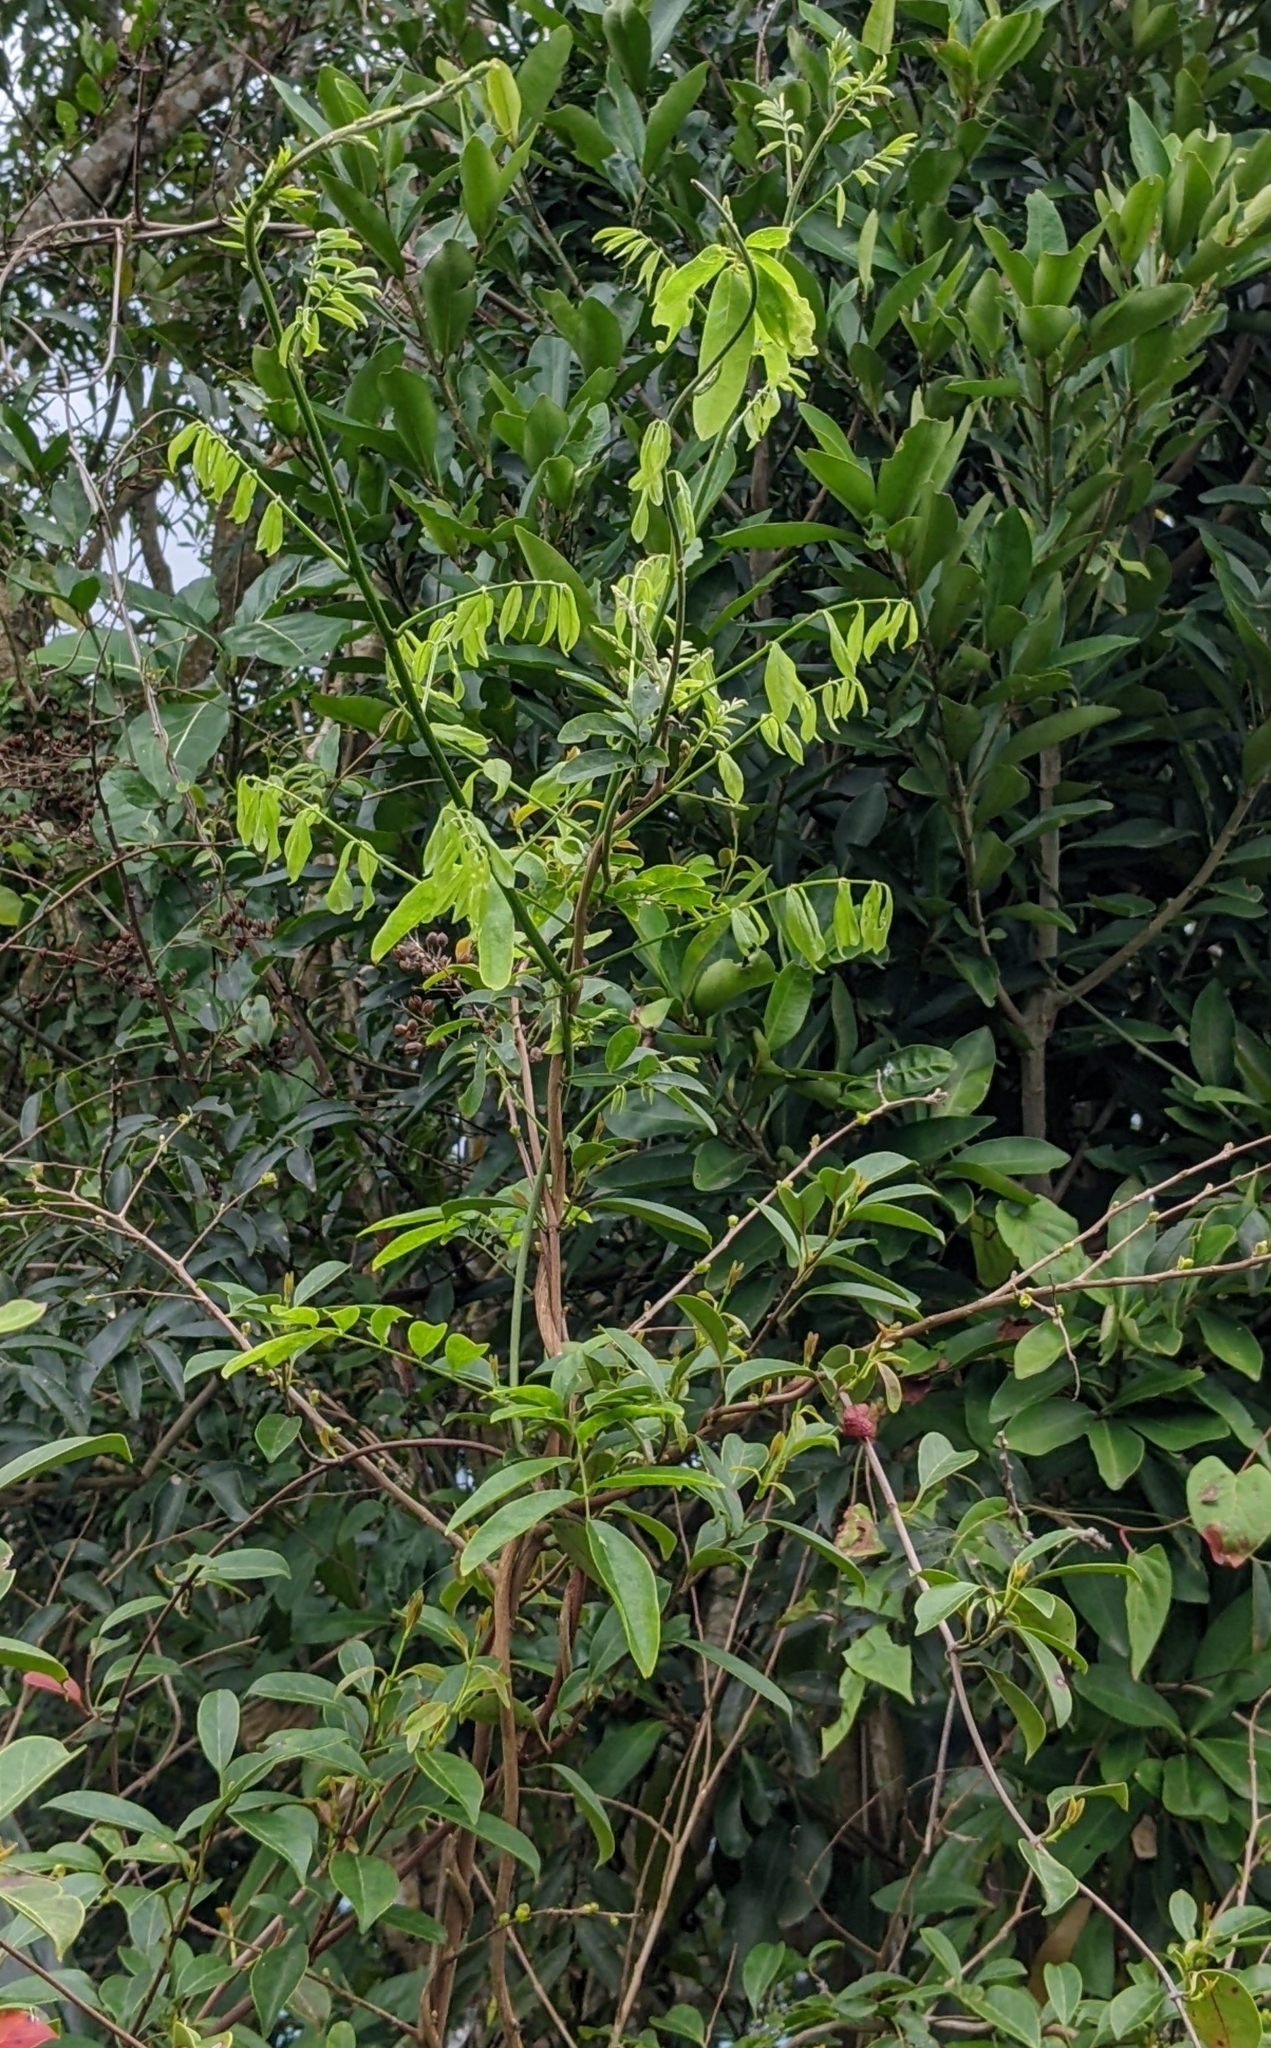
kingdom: Plantae
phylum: Tracheophyta
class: Magnoliopsida
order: Fabales
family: Fabaceae
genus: Wisteriopsis
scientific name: Wisteriopsis reticulata
